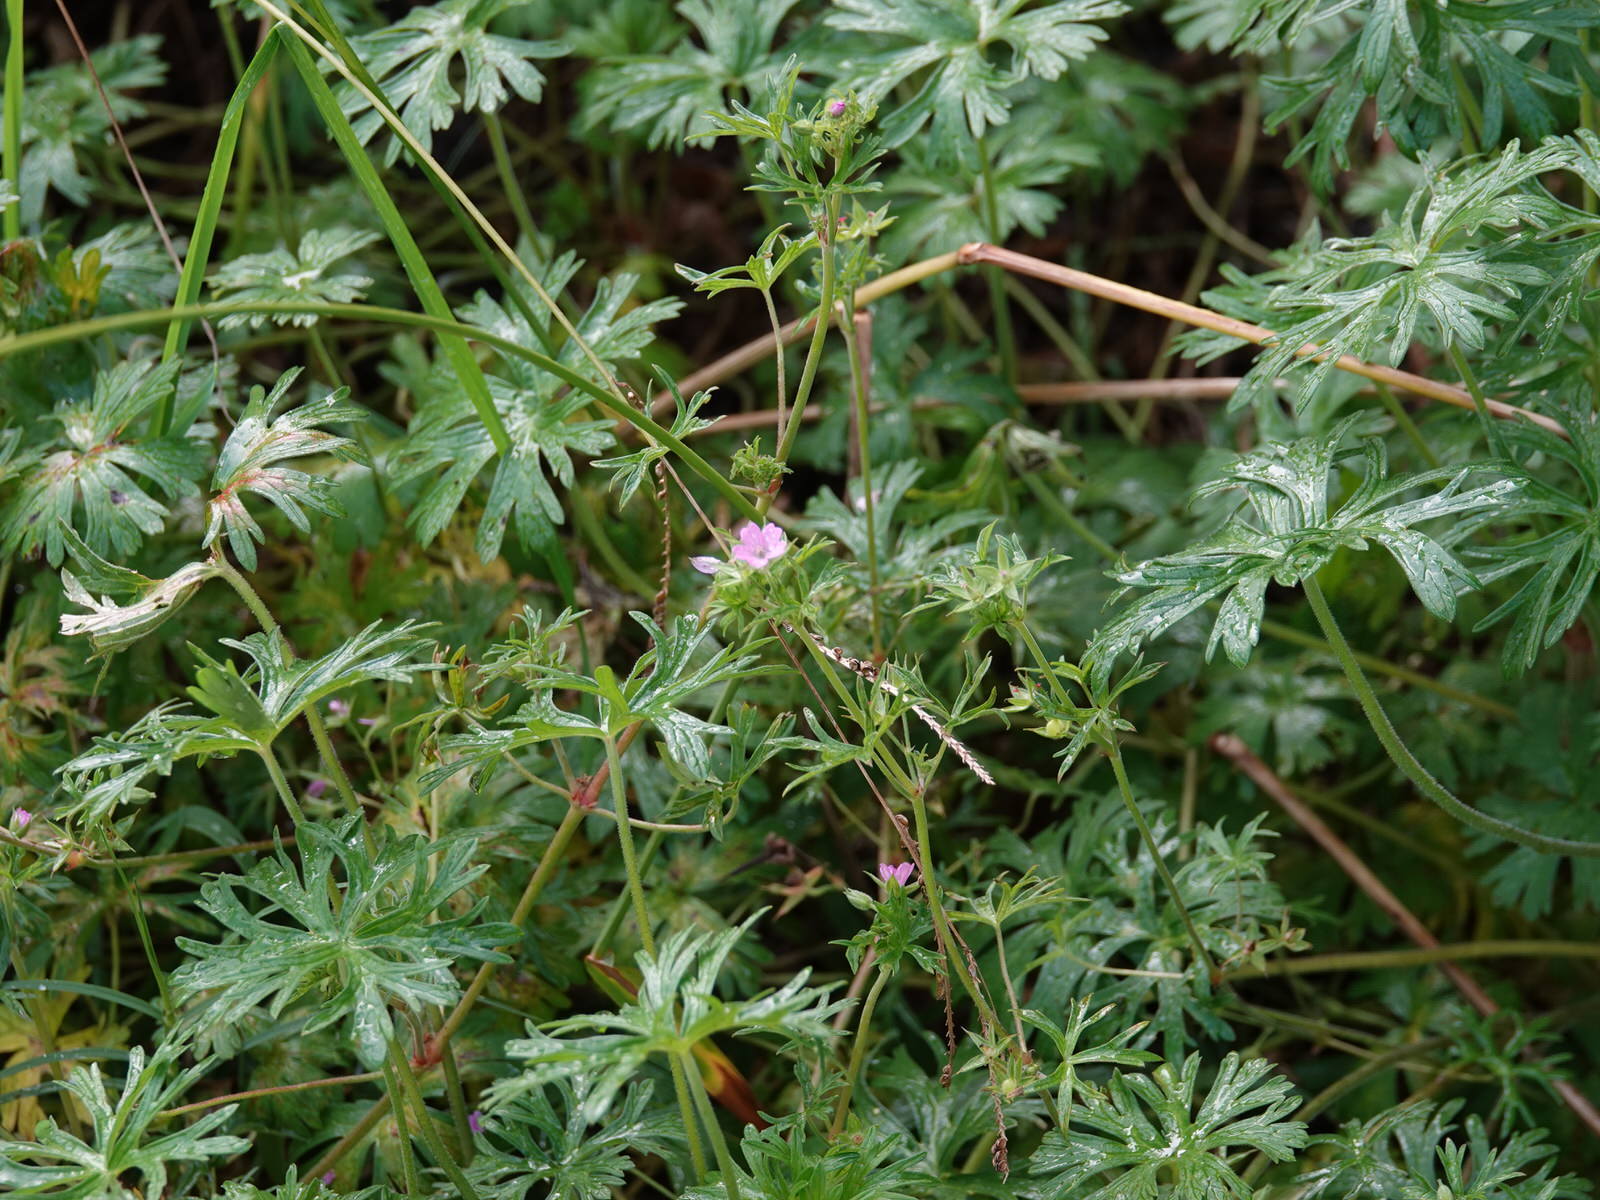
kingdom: Plantae
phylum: Tracheophyta
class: Magnoliopsida
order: Geraniales
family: Geraniaceae
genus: Geranium
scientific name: Geranium dissectum
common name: Cut-leaved crane's-bill
